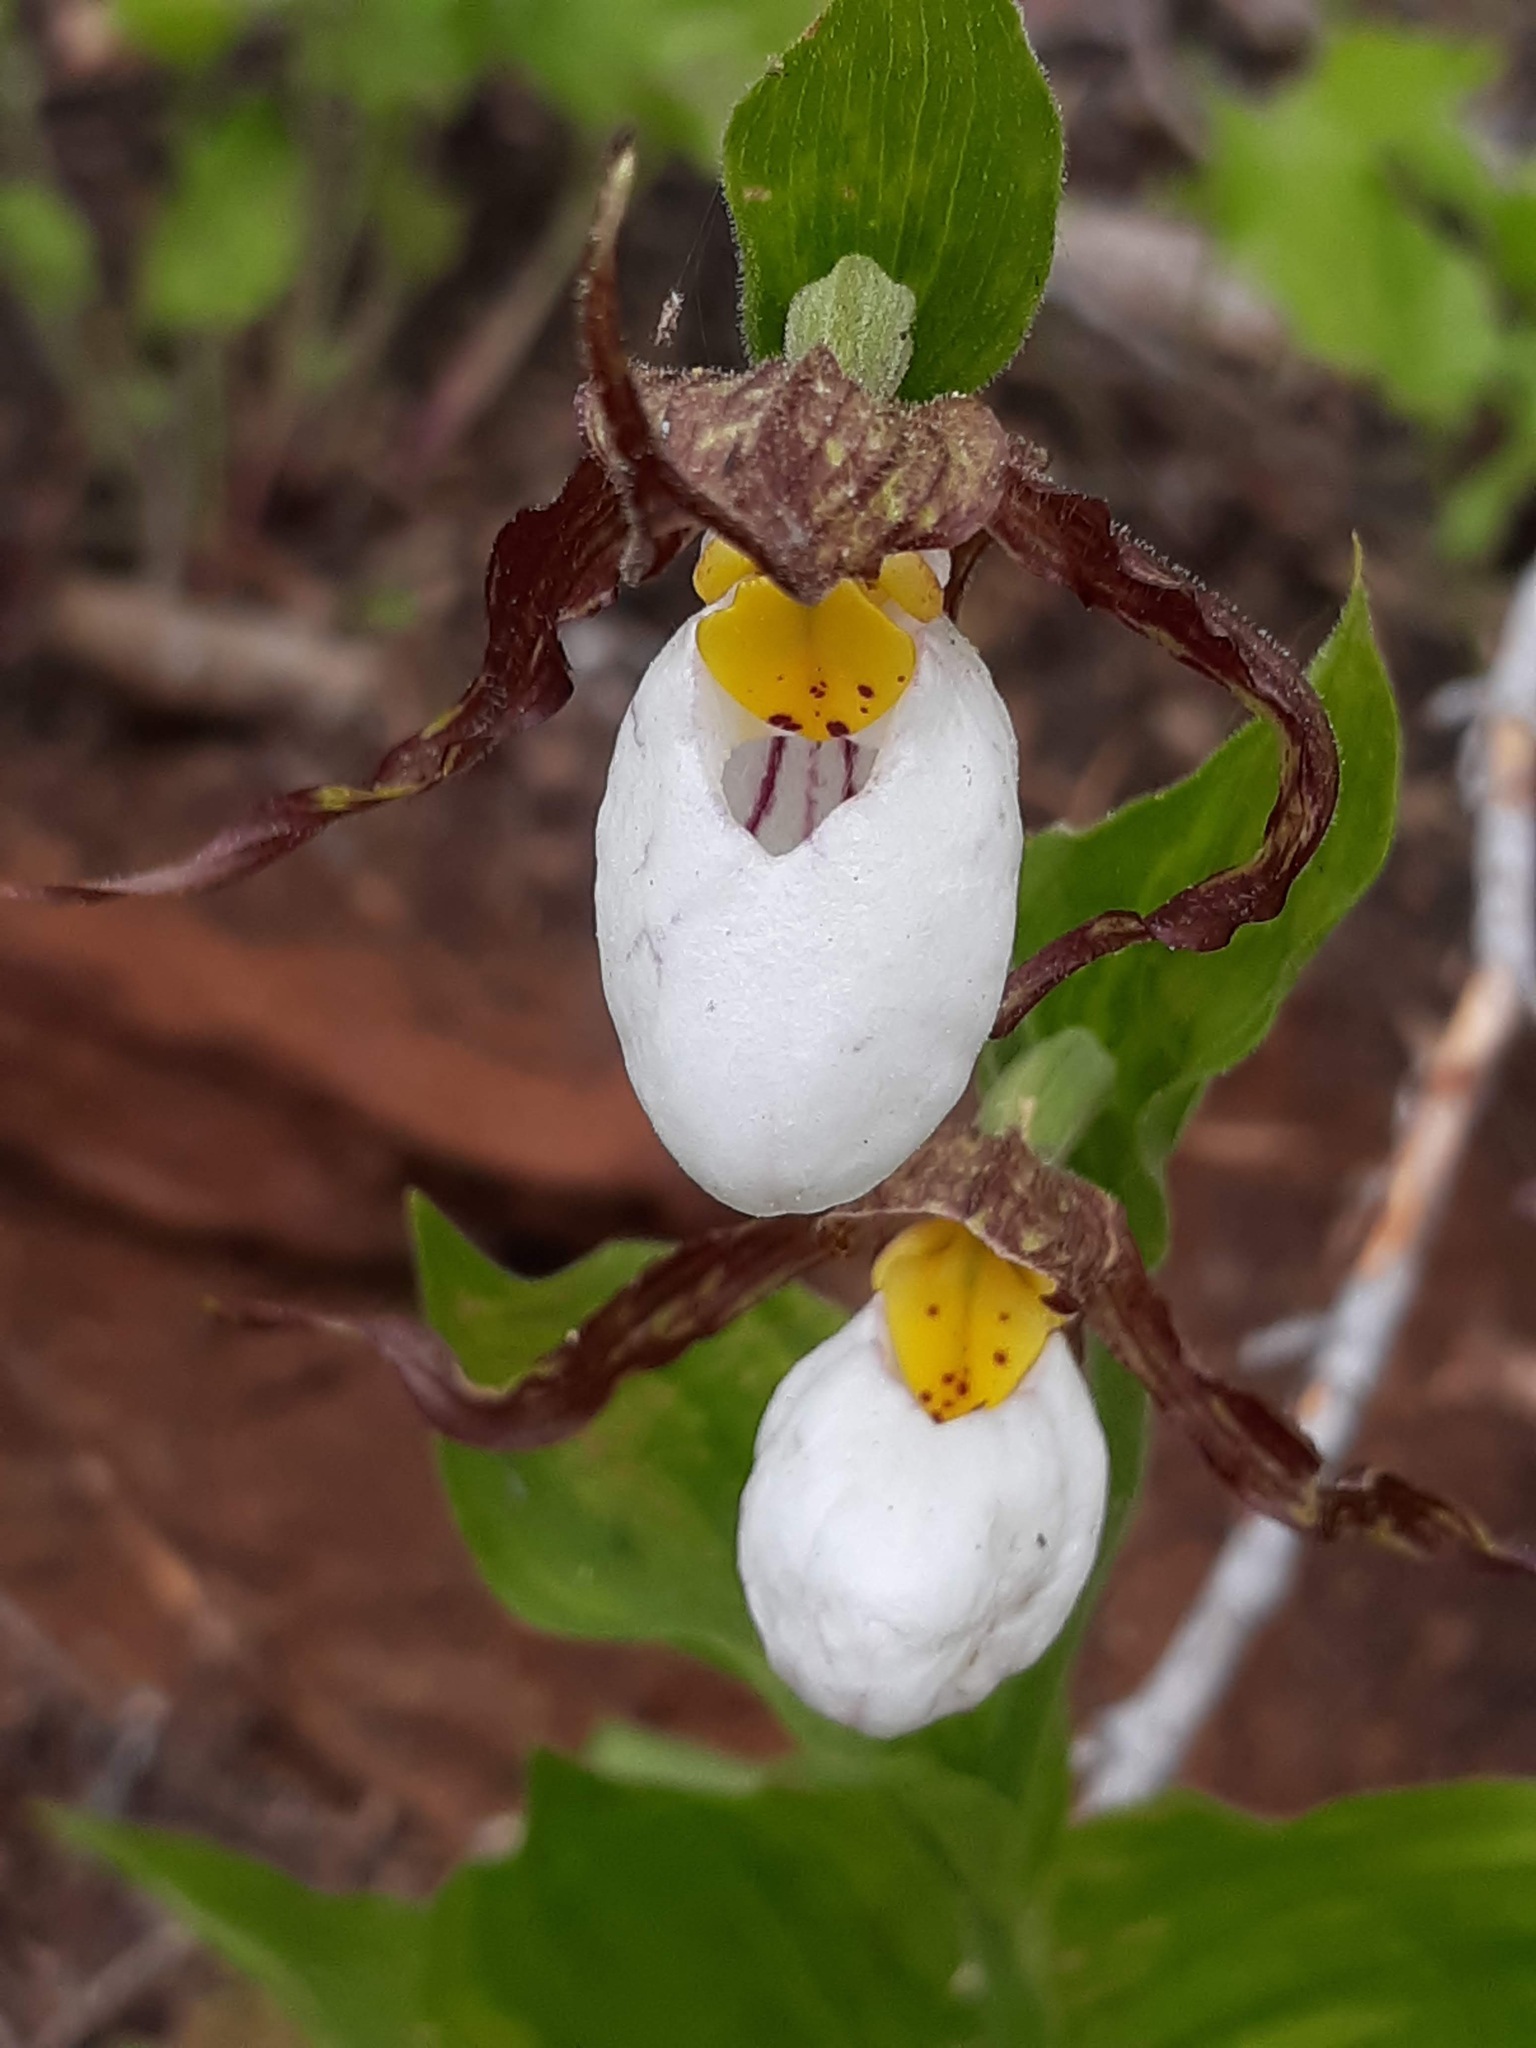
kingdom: Plantae
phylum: Tracheophyta
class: Liliopsida
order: Asparagales
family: Orchidaceae
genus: Cypripedium
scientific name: Cypripedium montanum
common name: Mountain lady's-slipper
